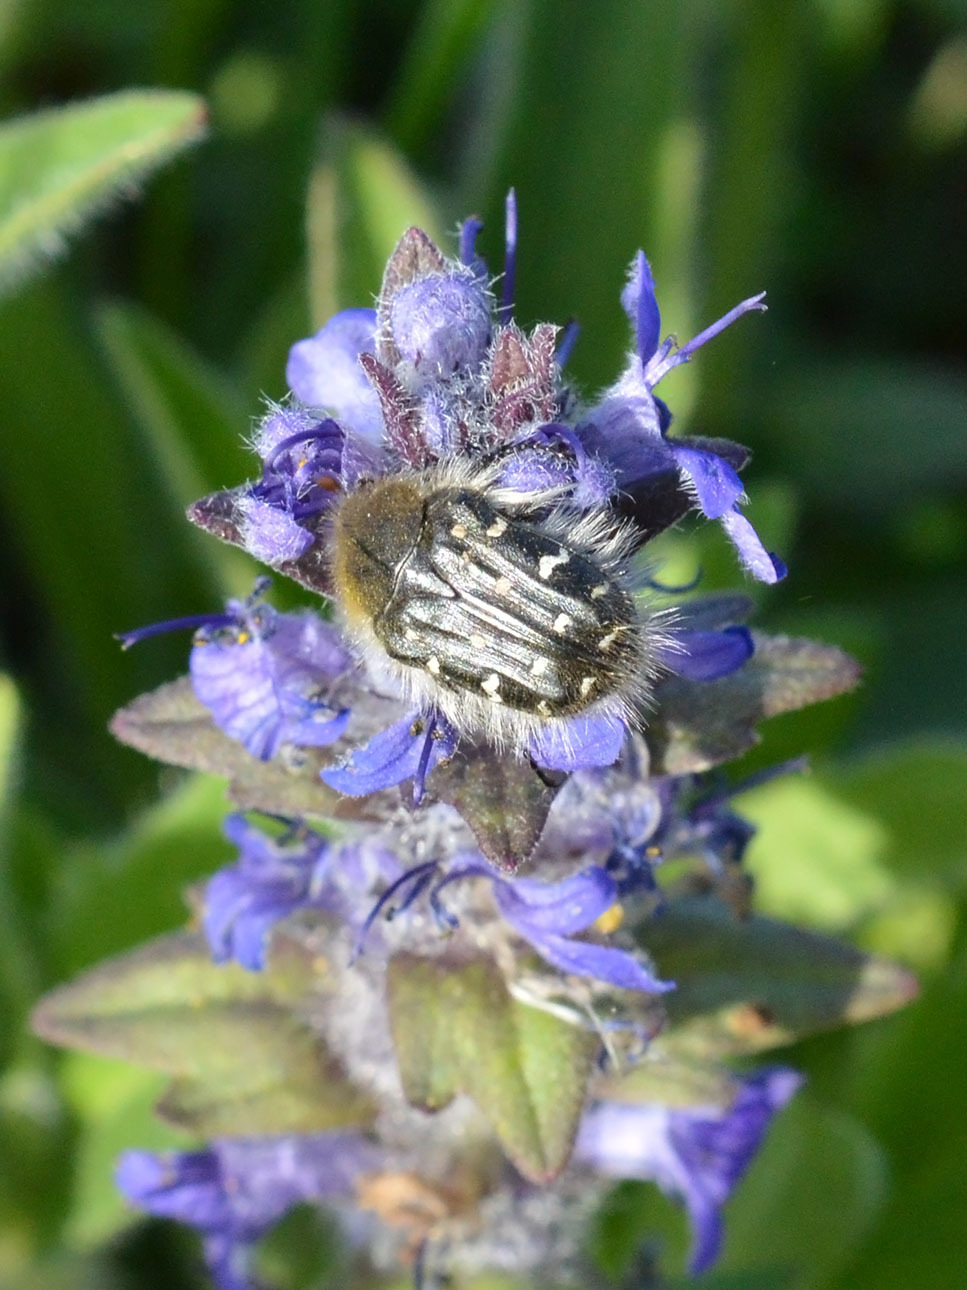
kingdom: Animalia
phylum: Arthropoda
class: Insecta
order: Coleoptera
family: Scarabaeidae
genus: Tropinota
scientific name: Tropinota hirta
